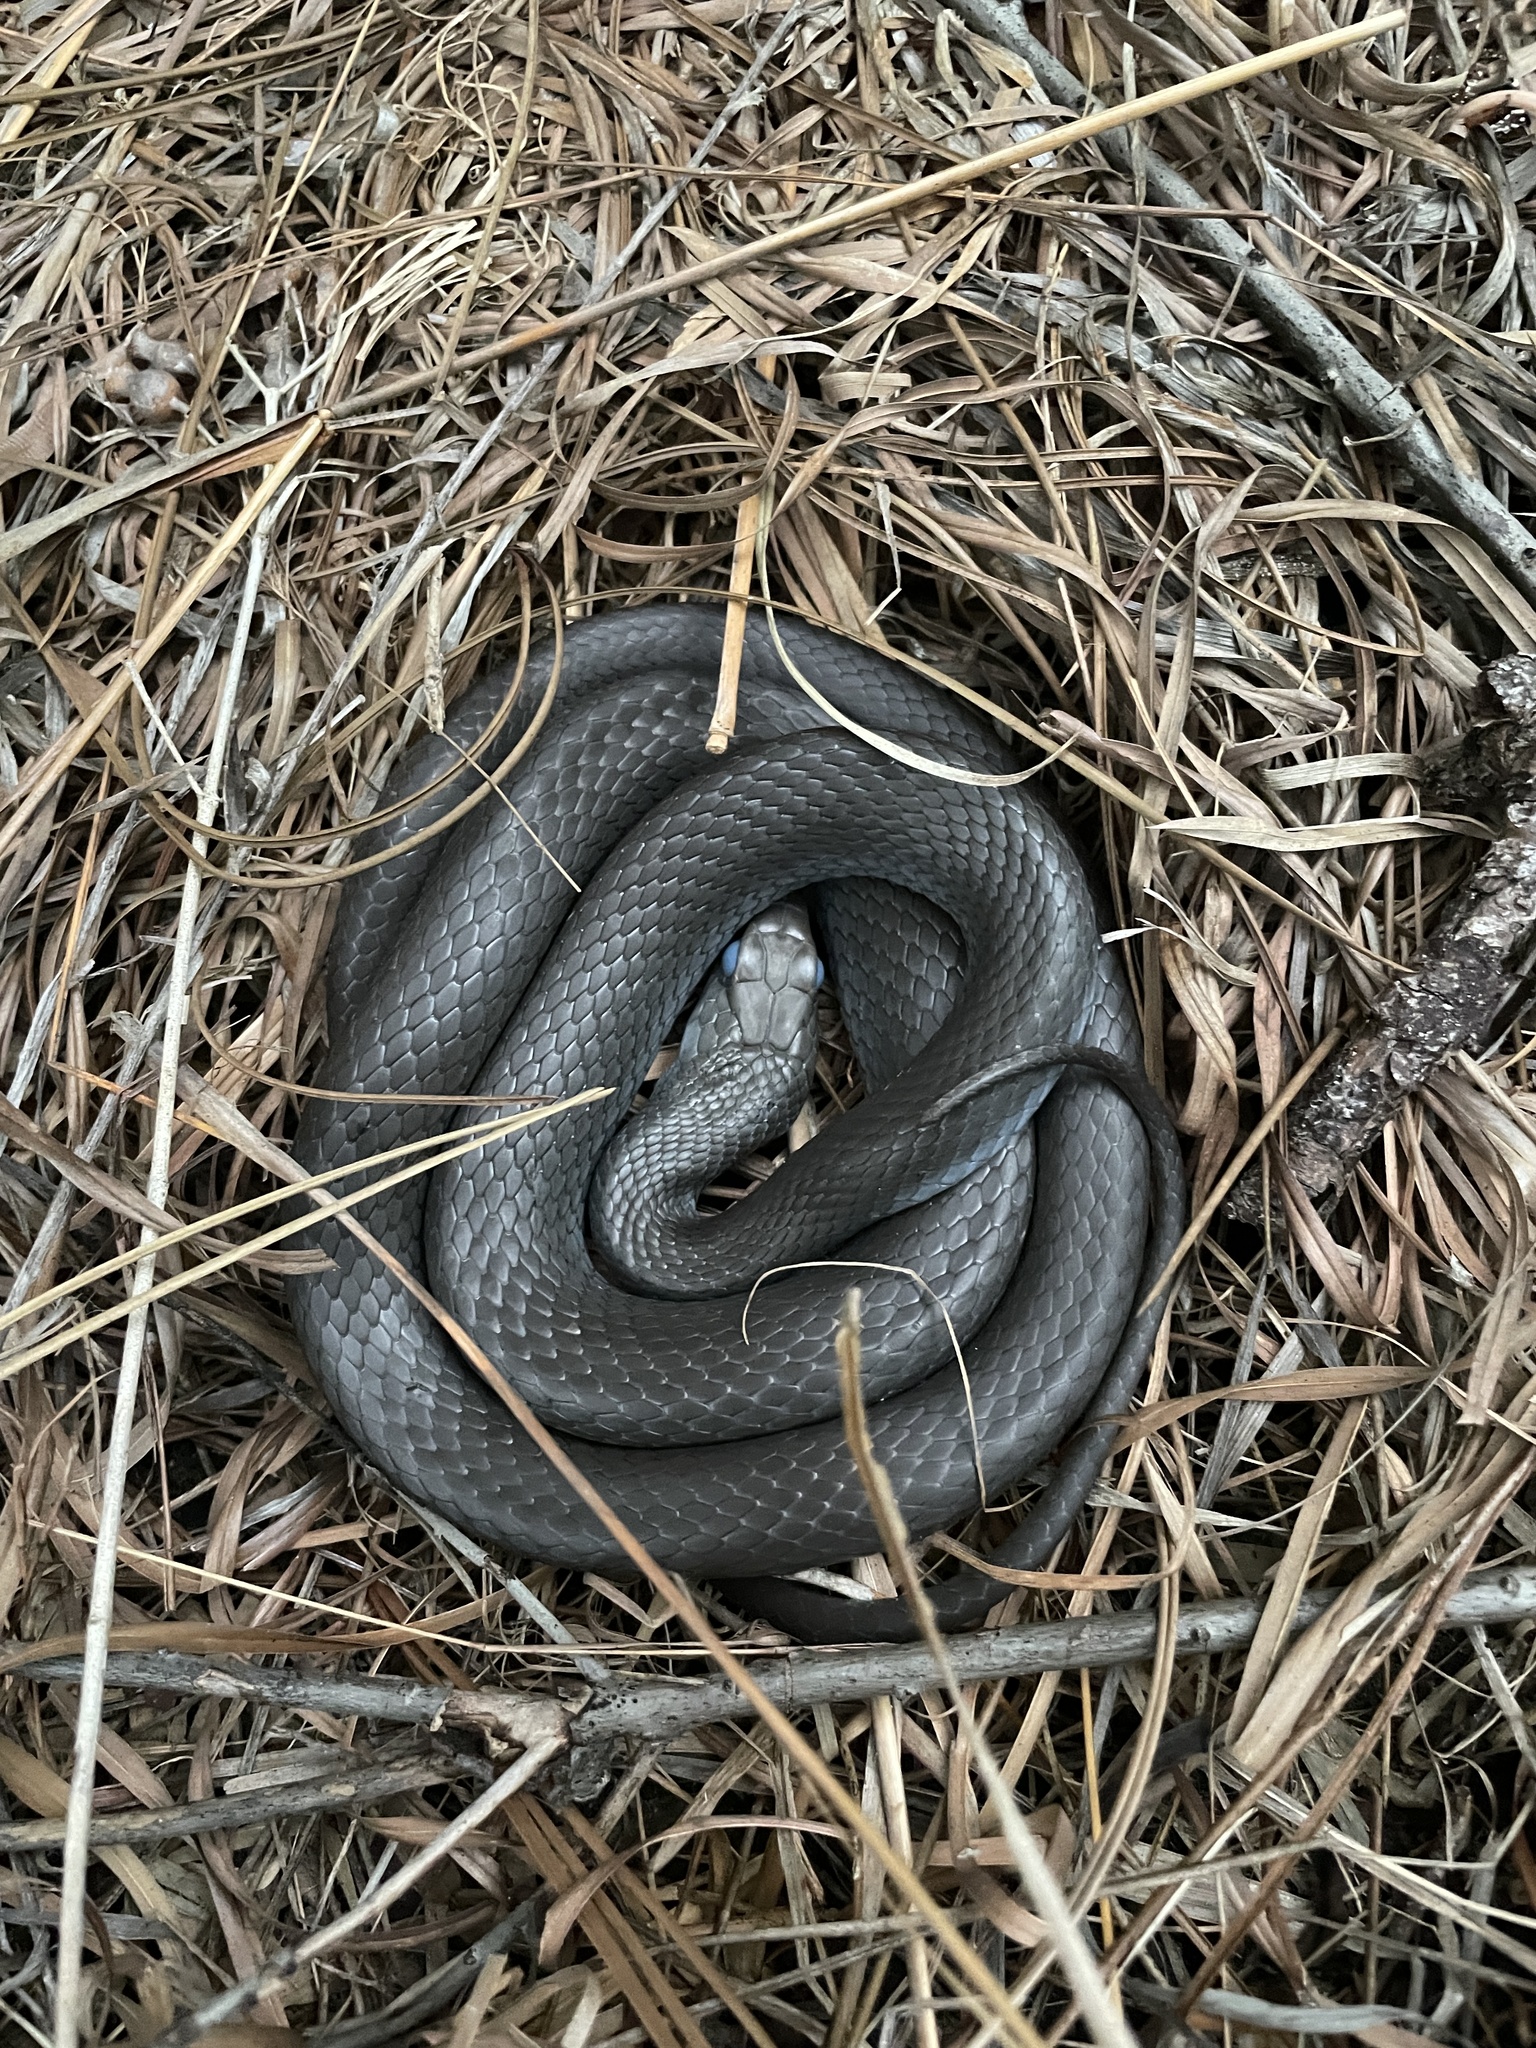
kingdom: Animalia
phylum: Chordata
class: Squamata
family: Colubridae
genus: Coluber
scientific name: Coluber constrictor
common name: Eastern racer
